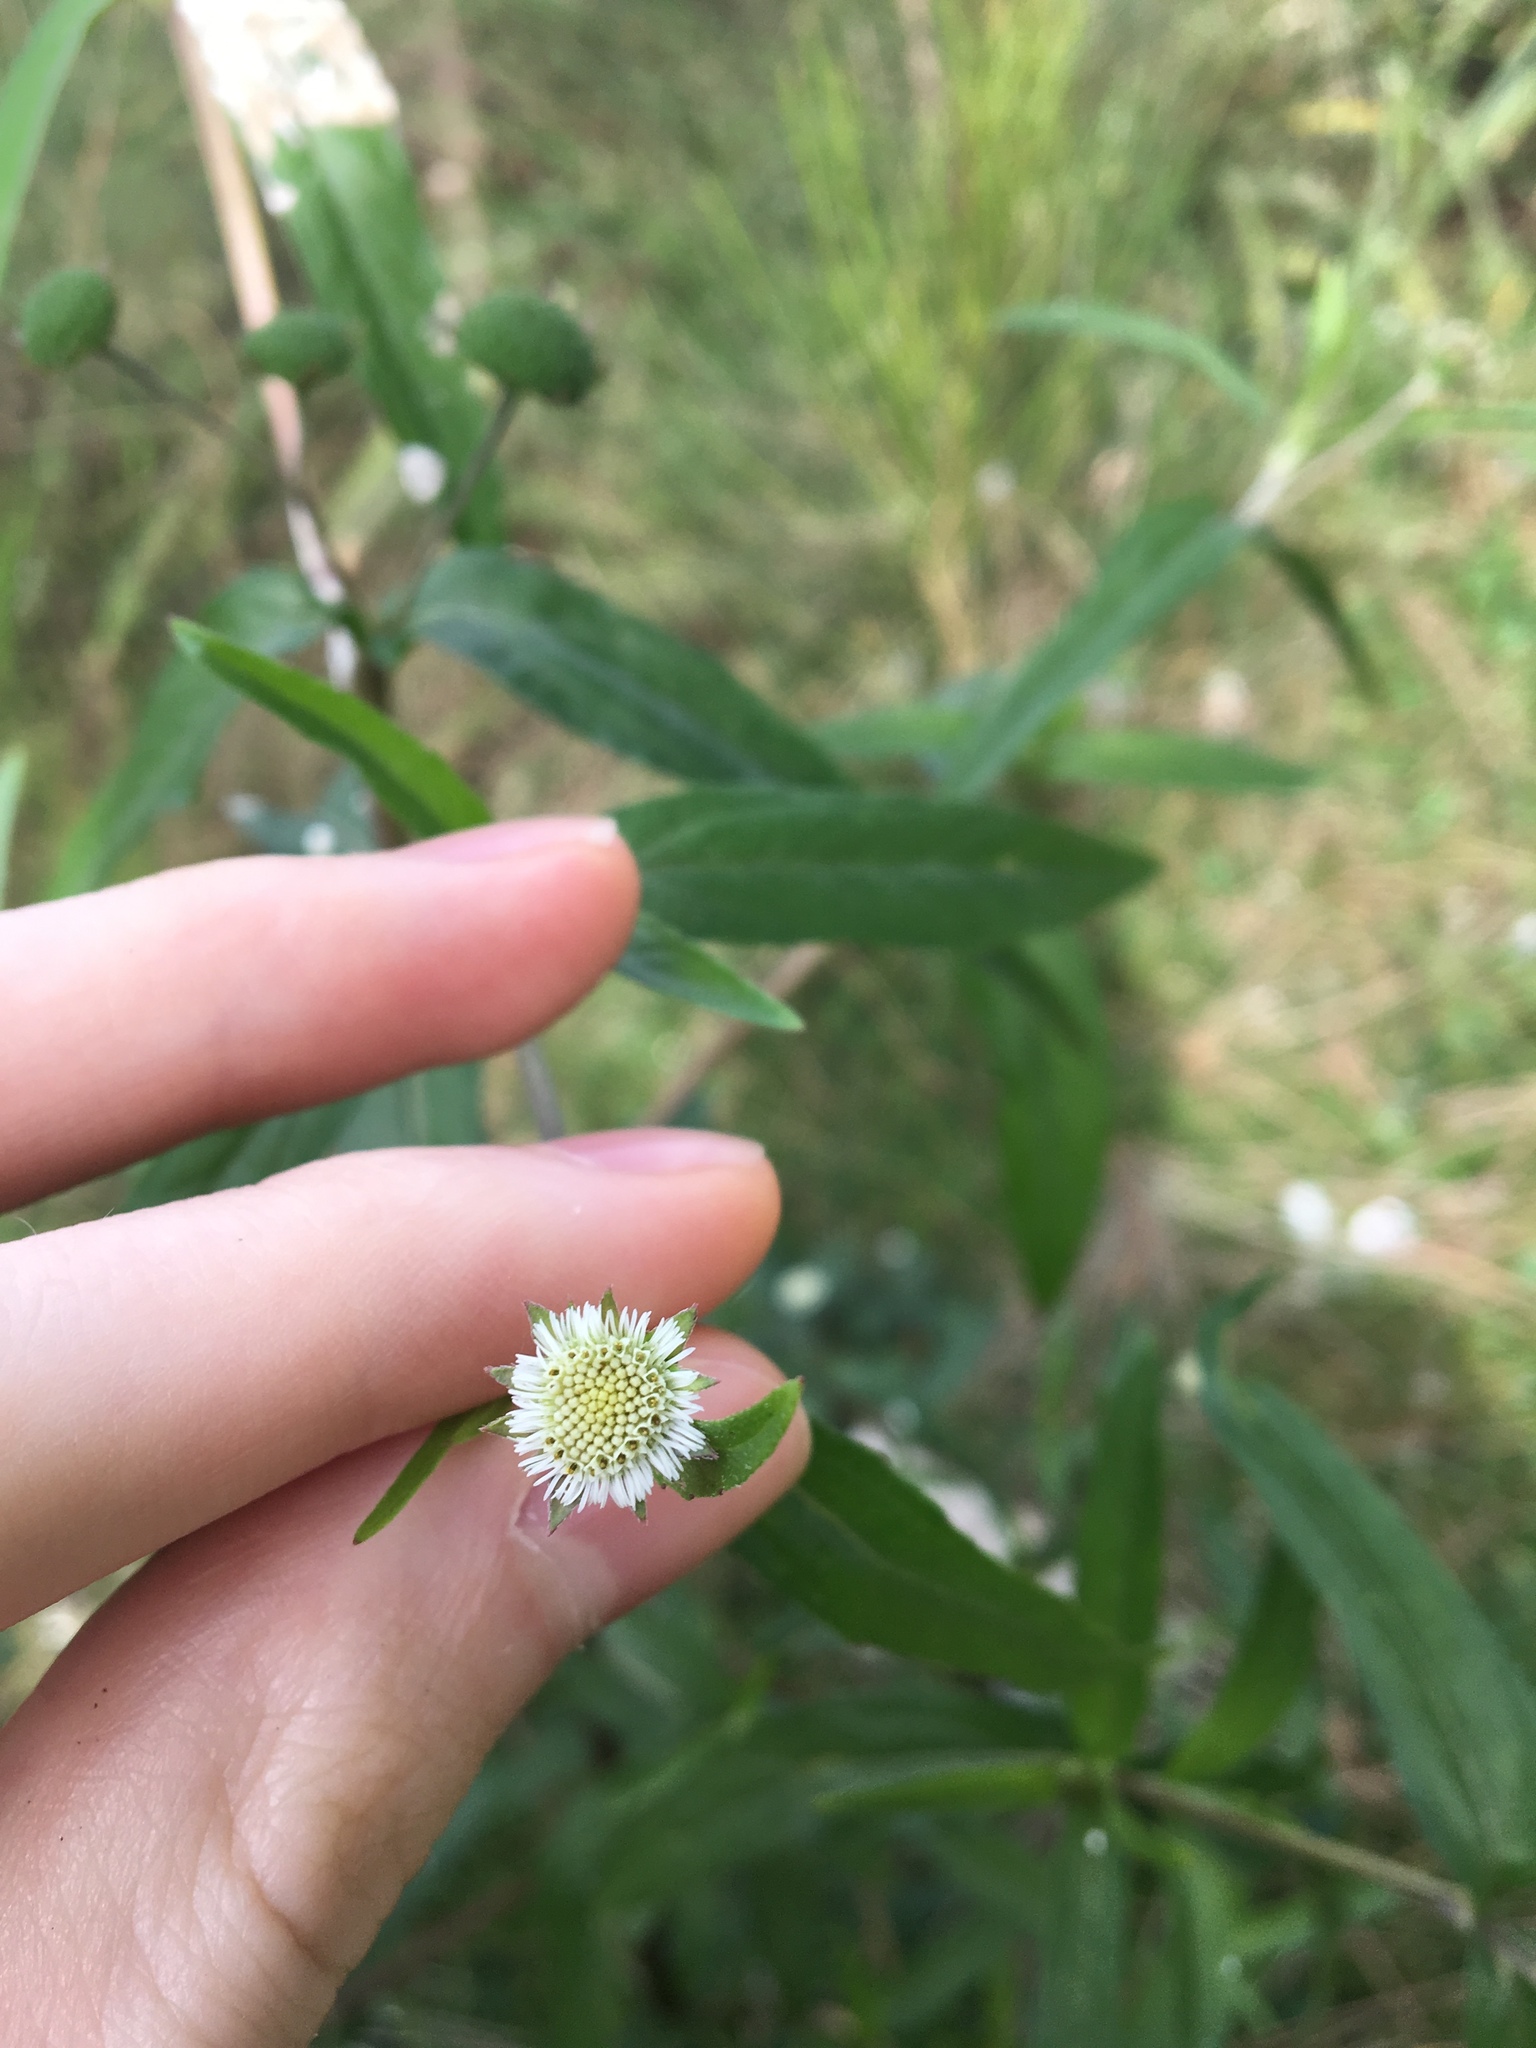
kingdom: Plantae
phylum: Tracheophyta
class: Magnoliopsida
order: Asterales
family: Asteraceae
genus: Eclipta
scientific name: Eclipta prostrata
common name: False daisy
